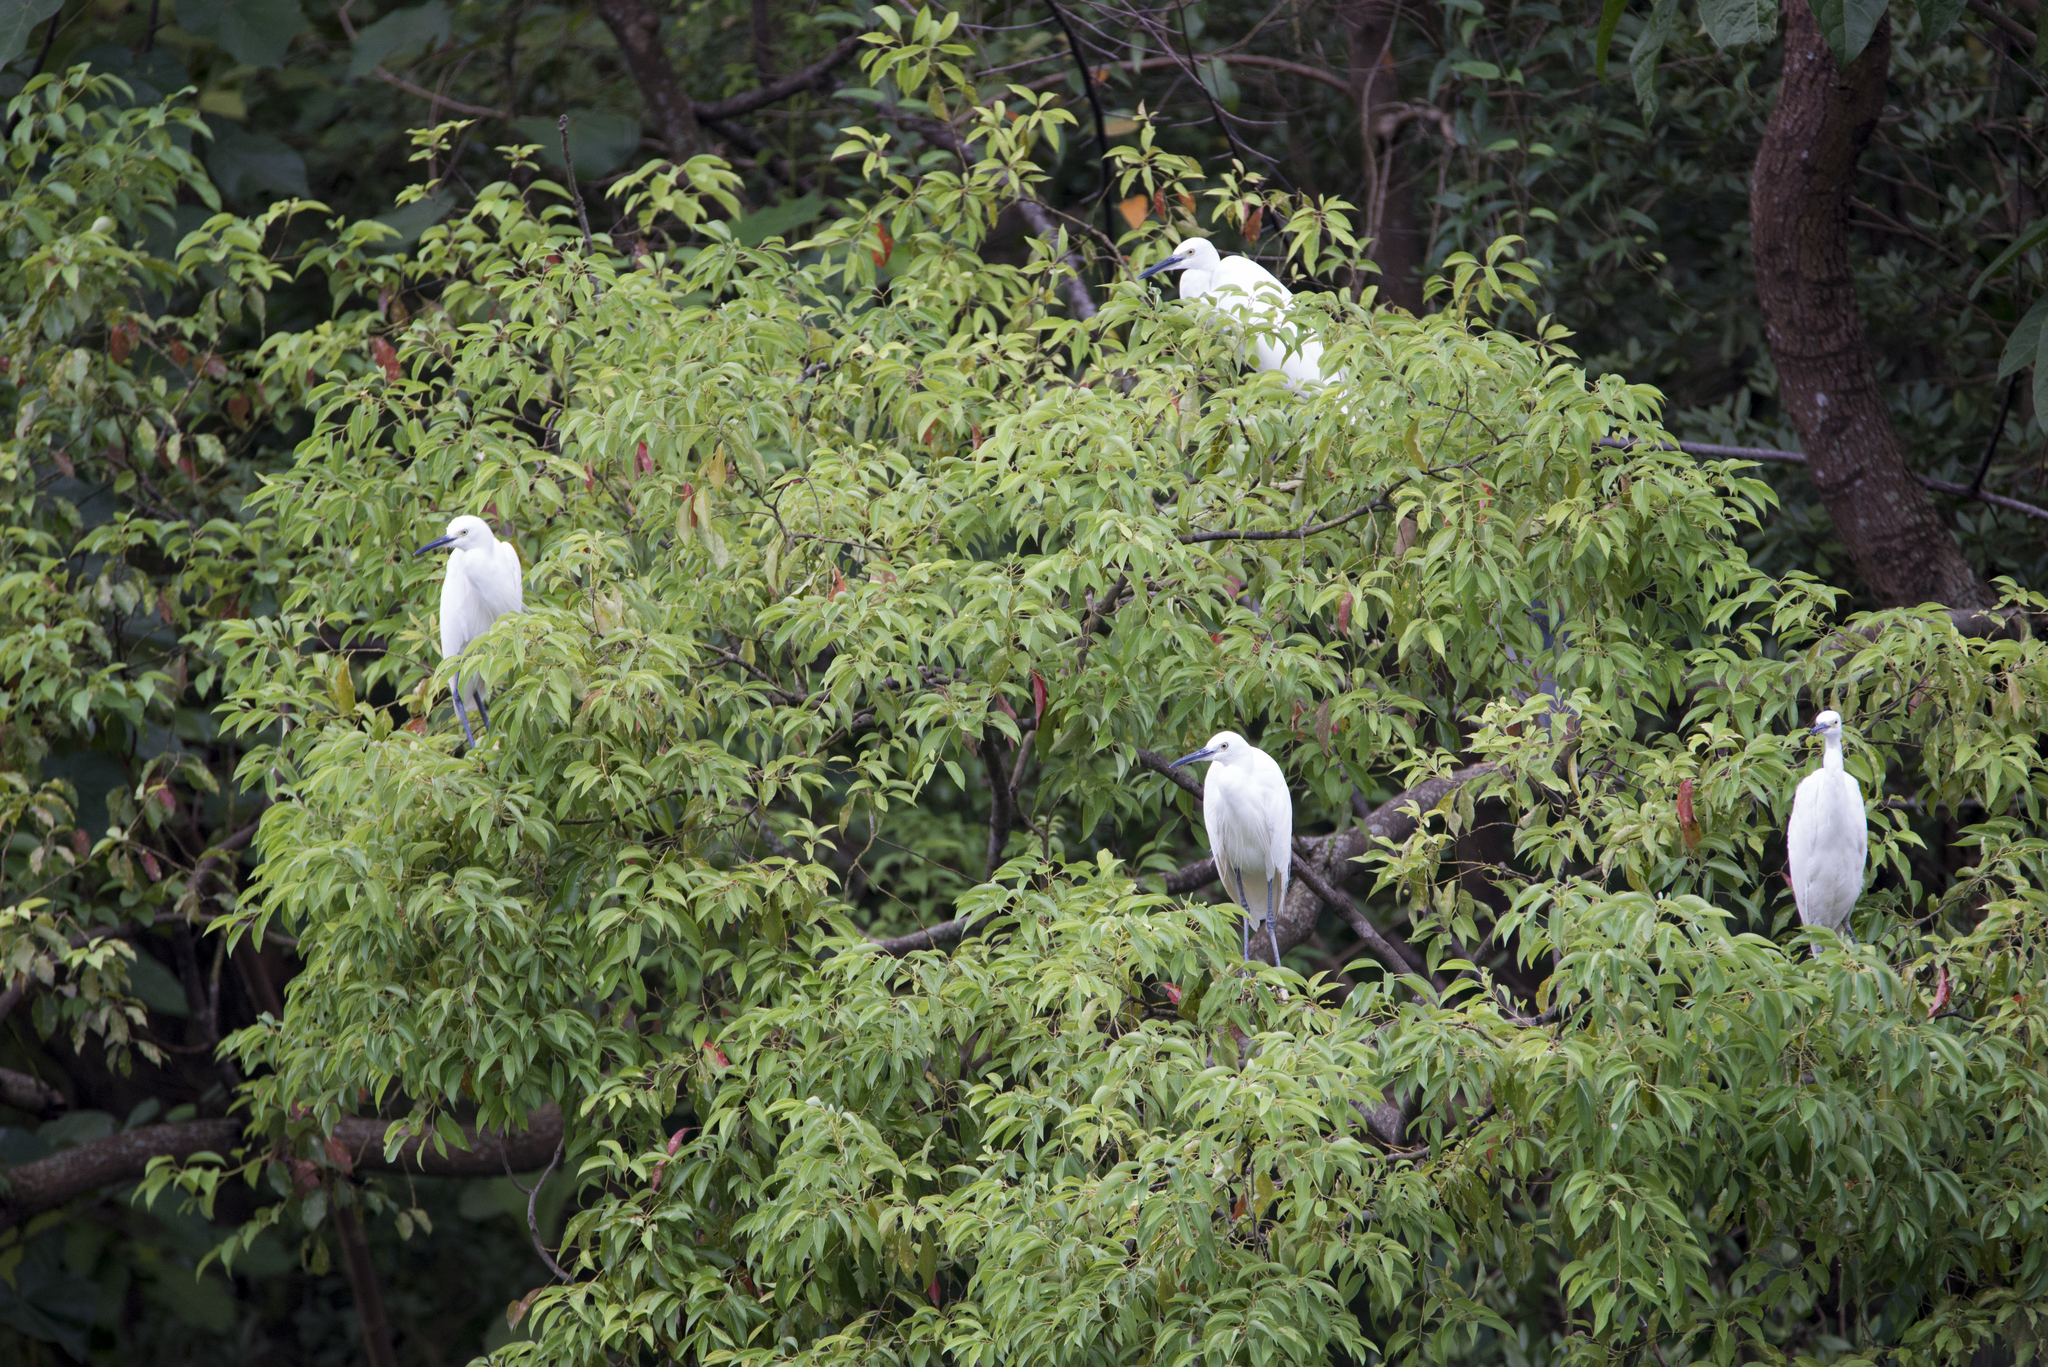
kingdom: Animalia
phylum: Chordata
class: Aves
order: Pelecaniformes
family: Ardeidae
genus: Egretta
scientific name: Egretta garzetta
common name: Little egret
